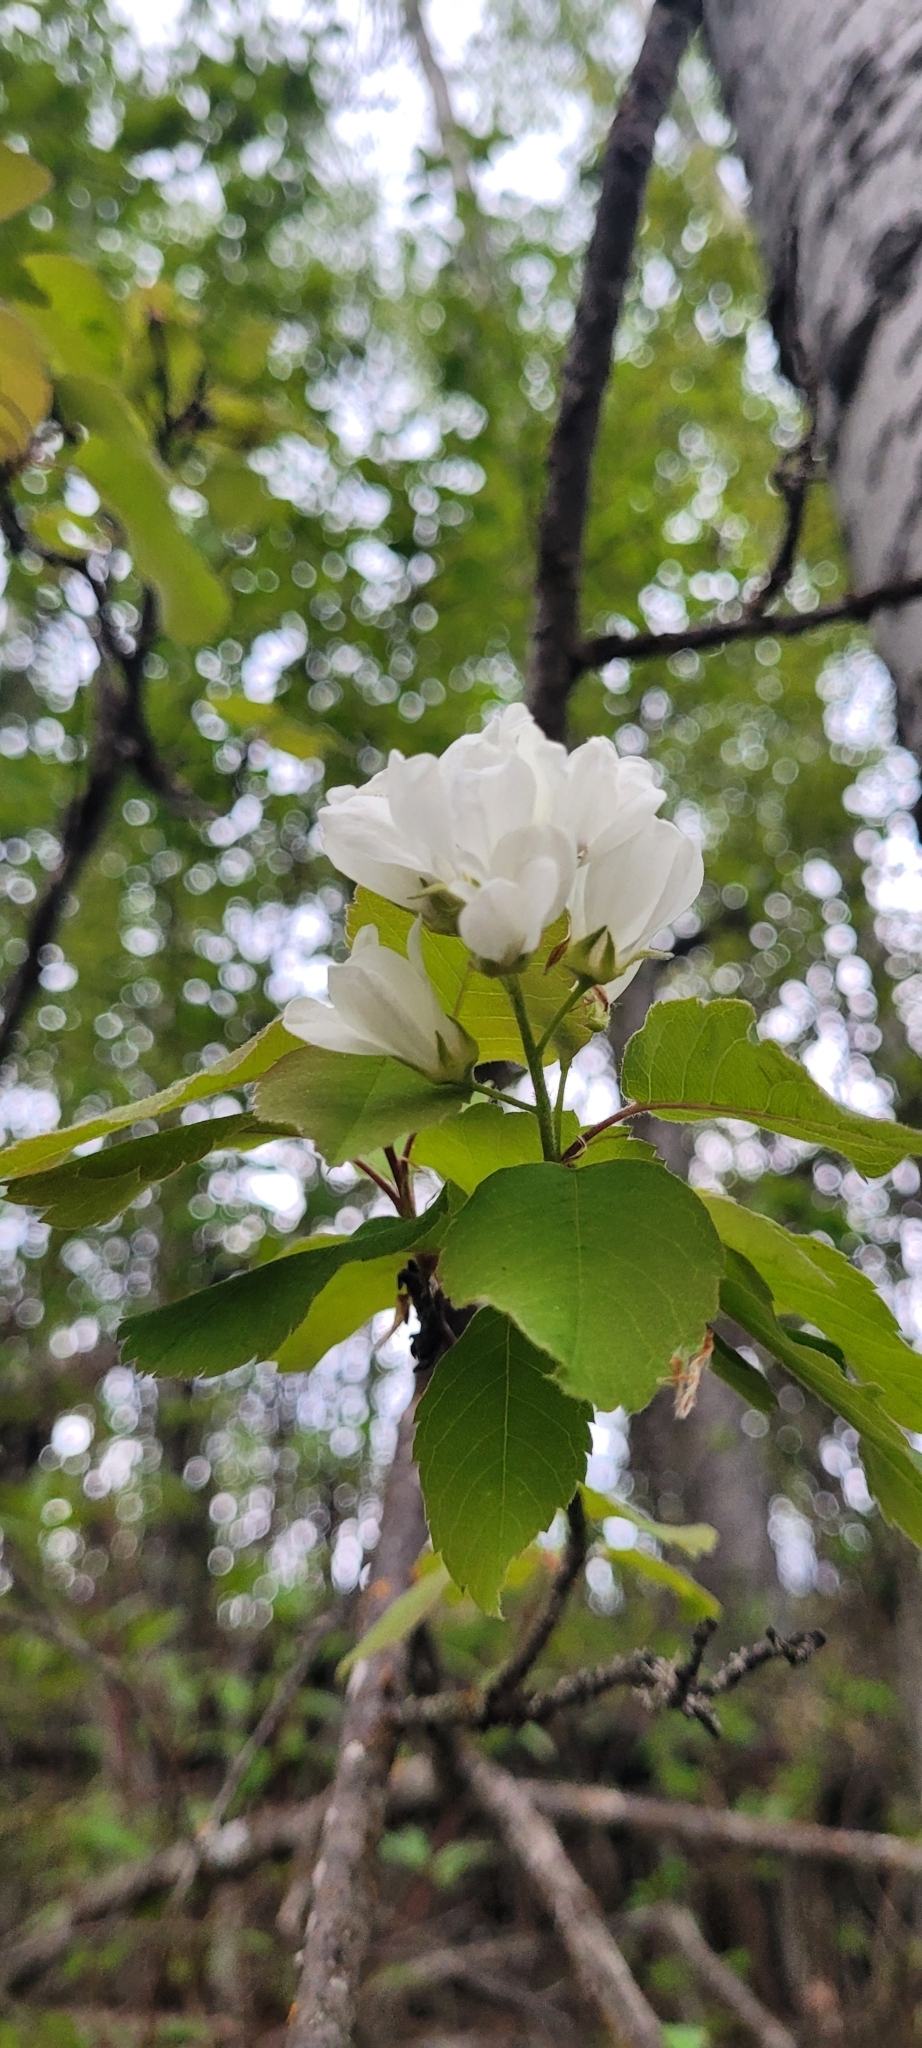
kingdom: Plantae
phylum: Tracheophyta
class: Magnoliopsida
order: Rosales
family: Rosaceae
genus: Amelanchier
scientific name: Amelanchier alnifolia
